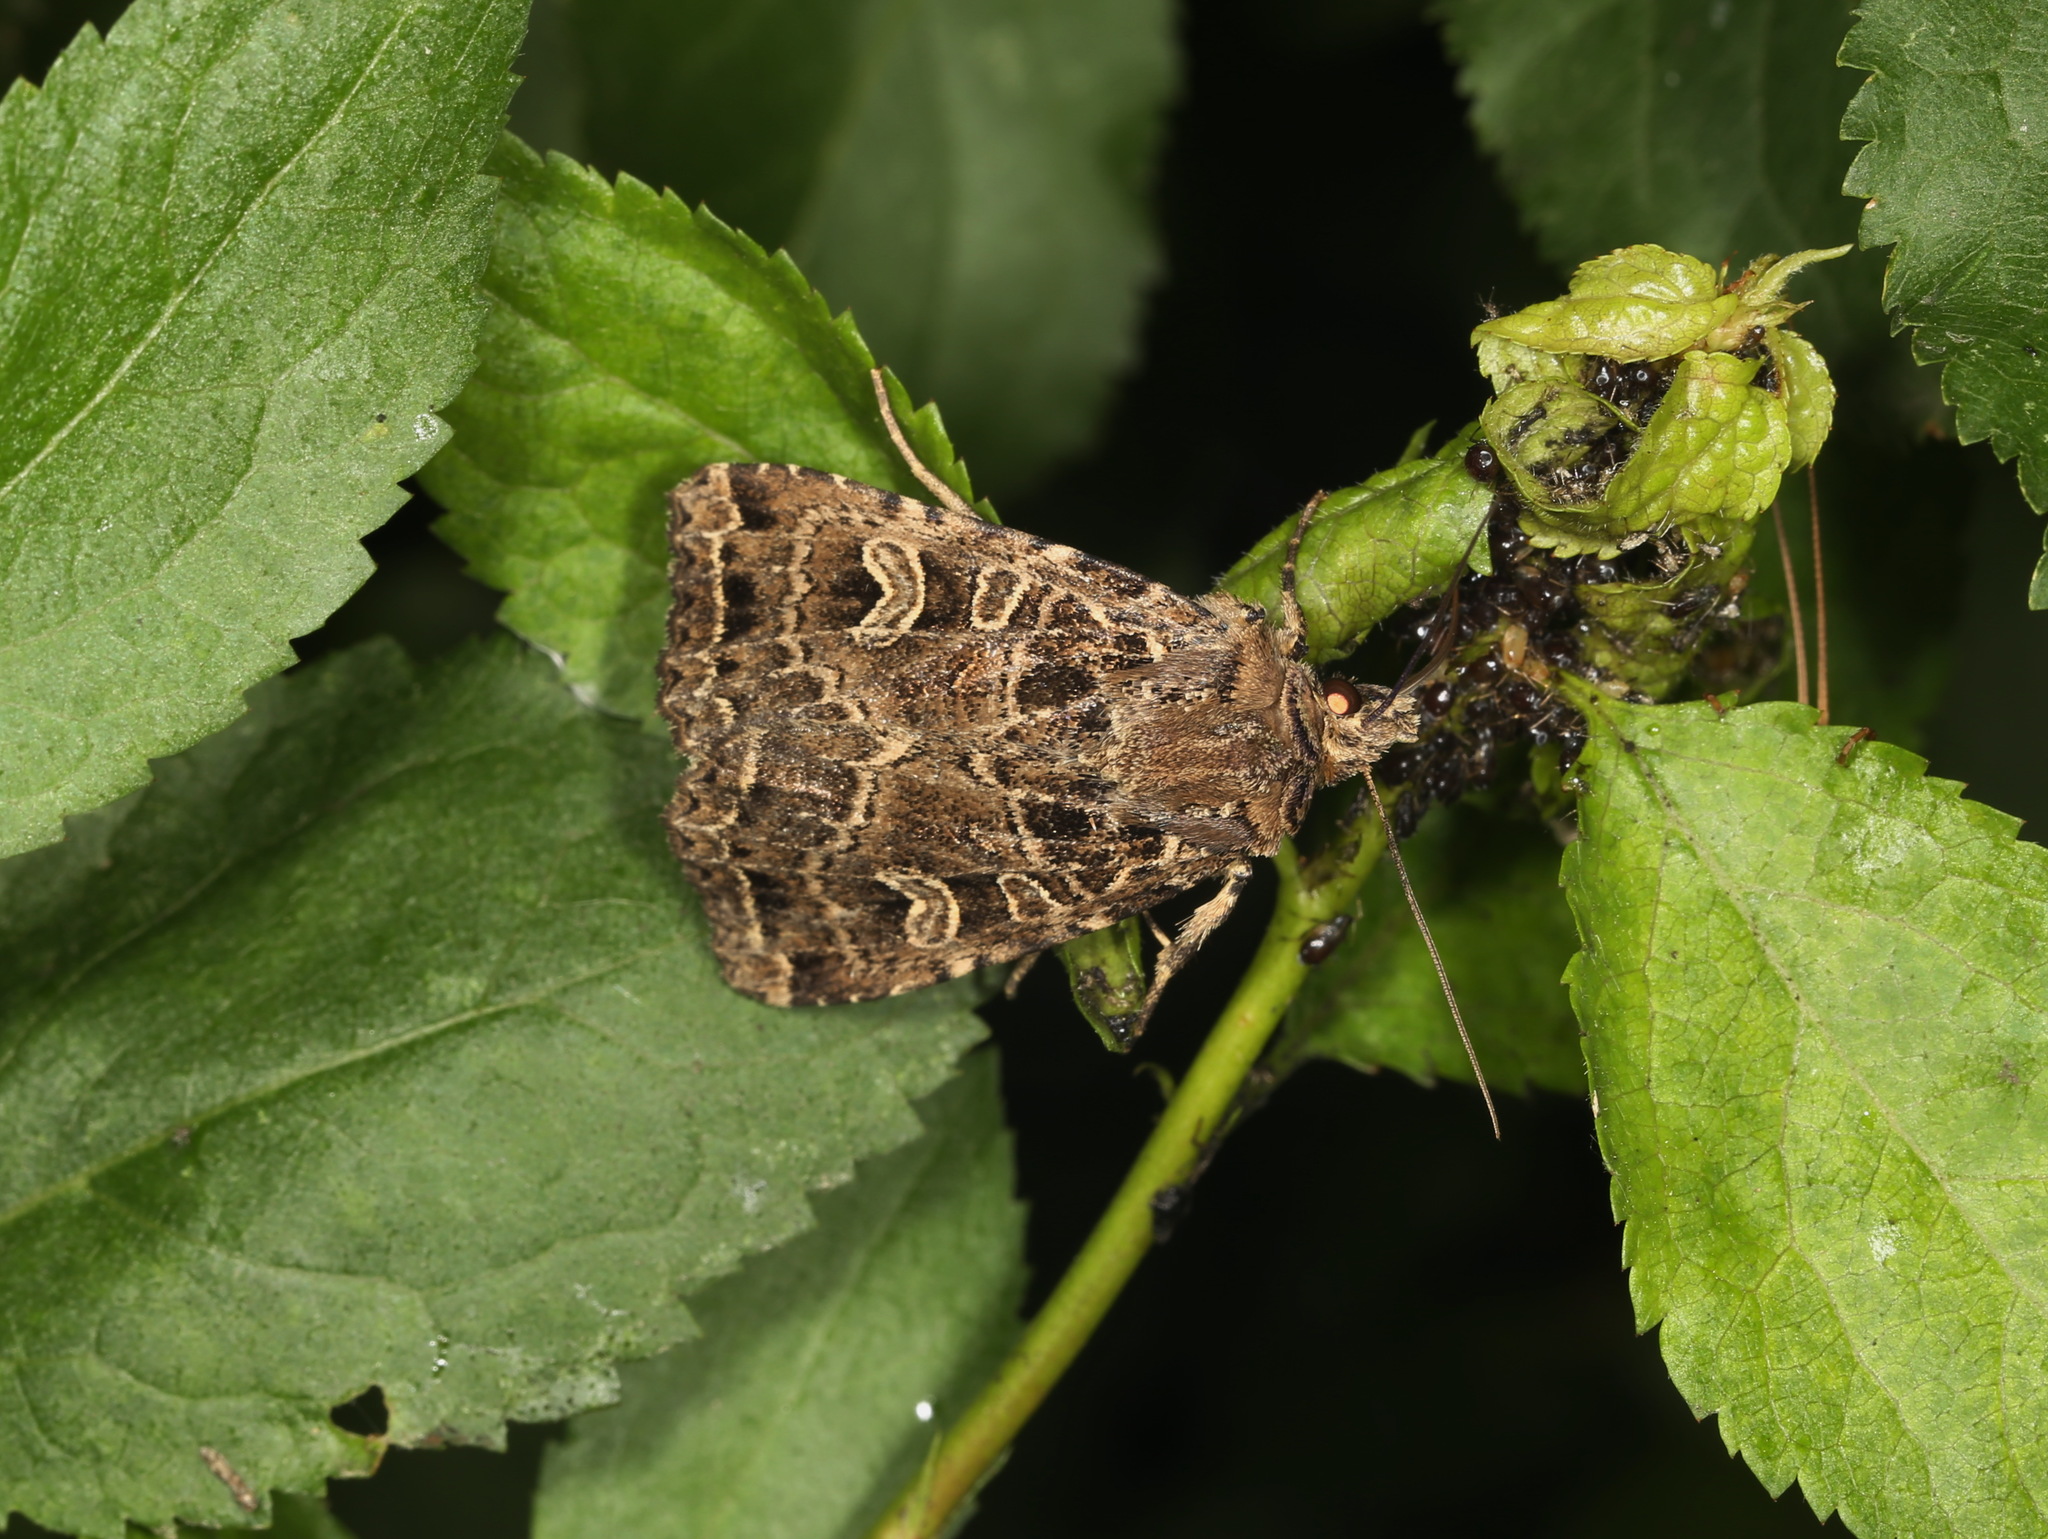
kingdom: Animalia
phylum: Arthropoda
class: Insecta
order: Lepidoptera
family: Noctuidae
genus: Naenia
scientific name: Naenia typica
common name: Gothic
